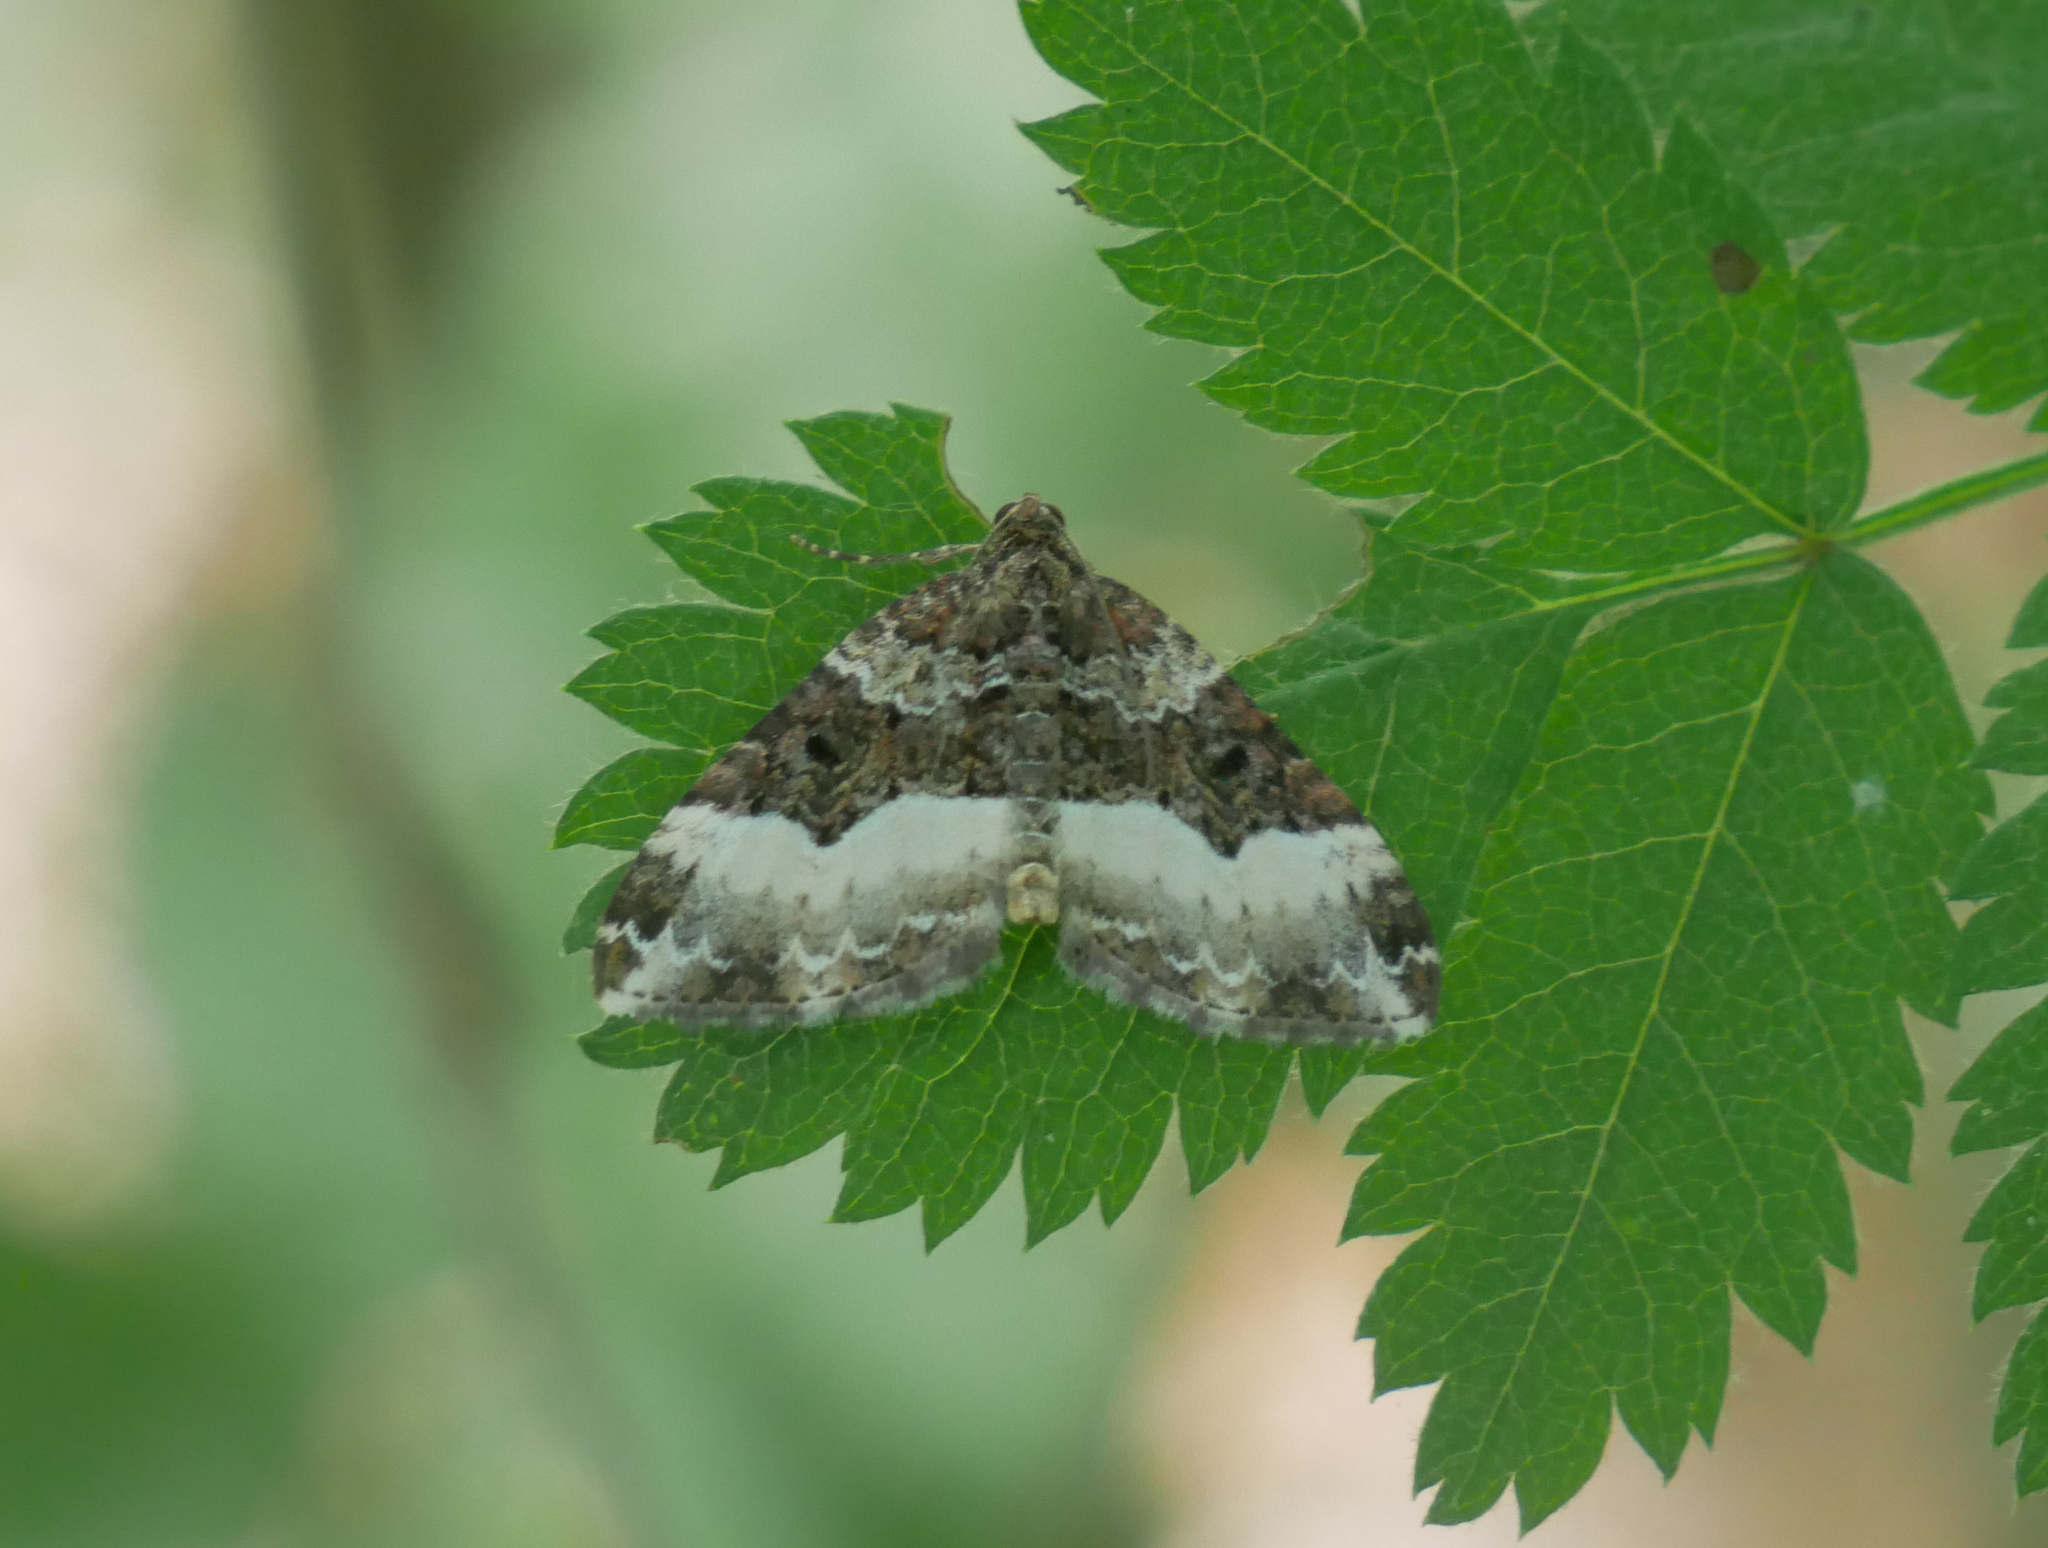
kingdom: Animalia
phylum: Arthropoda
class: Insecta
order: Lepidoptera
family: Geometridae
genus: Euphyia
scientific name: Euphyia unangulata
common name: Sharp-angled carpet
